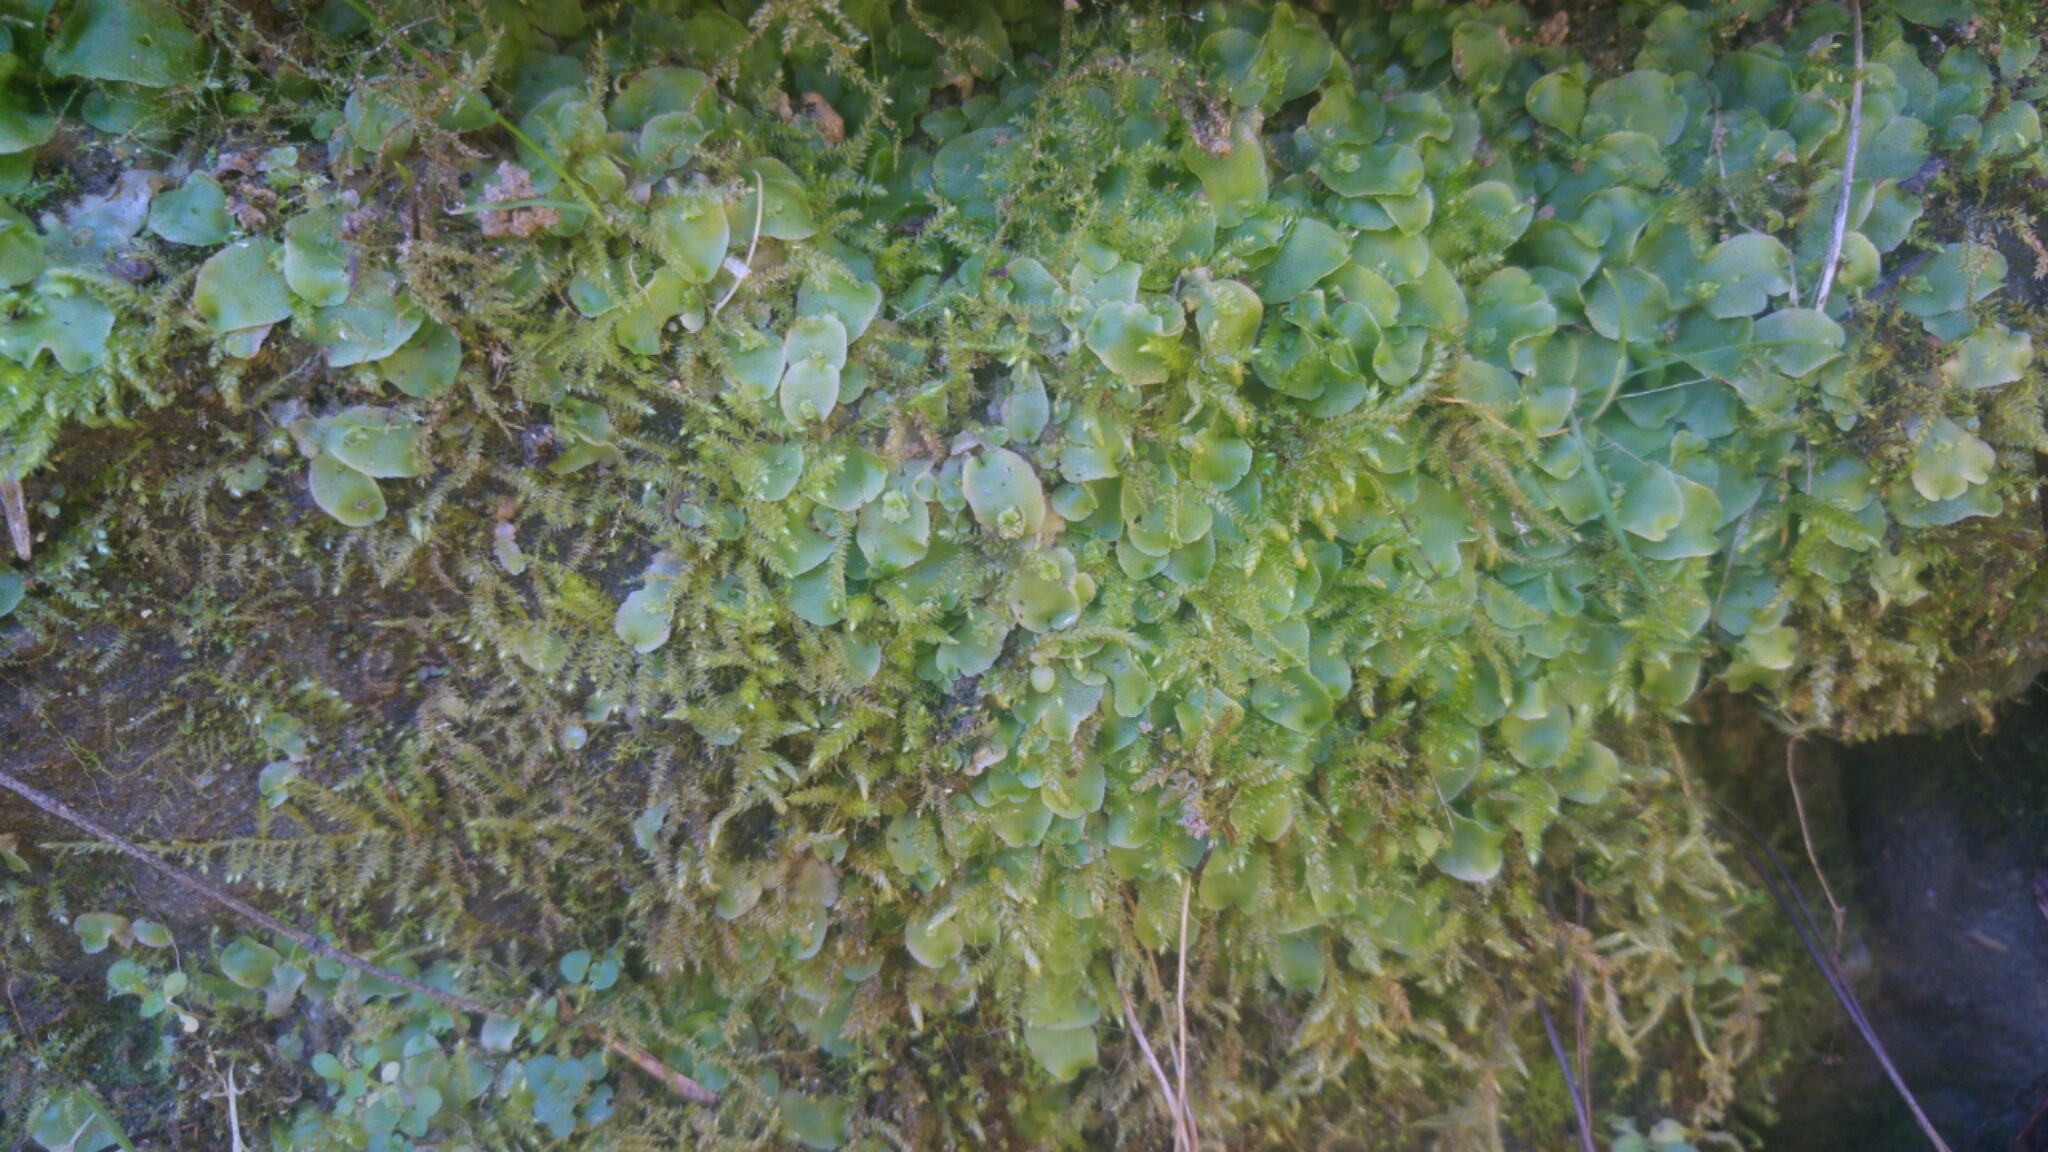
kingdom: Plantae
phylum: Marchantiophyta
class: Marchantiopsida
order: Marchantiales
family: Corsiniaceae
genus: Corsinia
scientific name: Corsinia coriandrina
